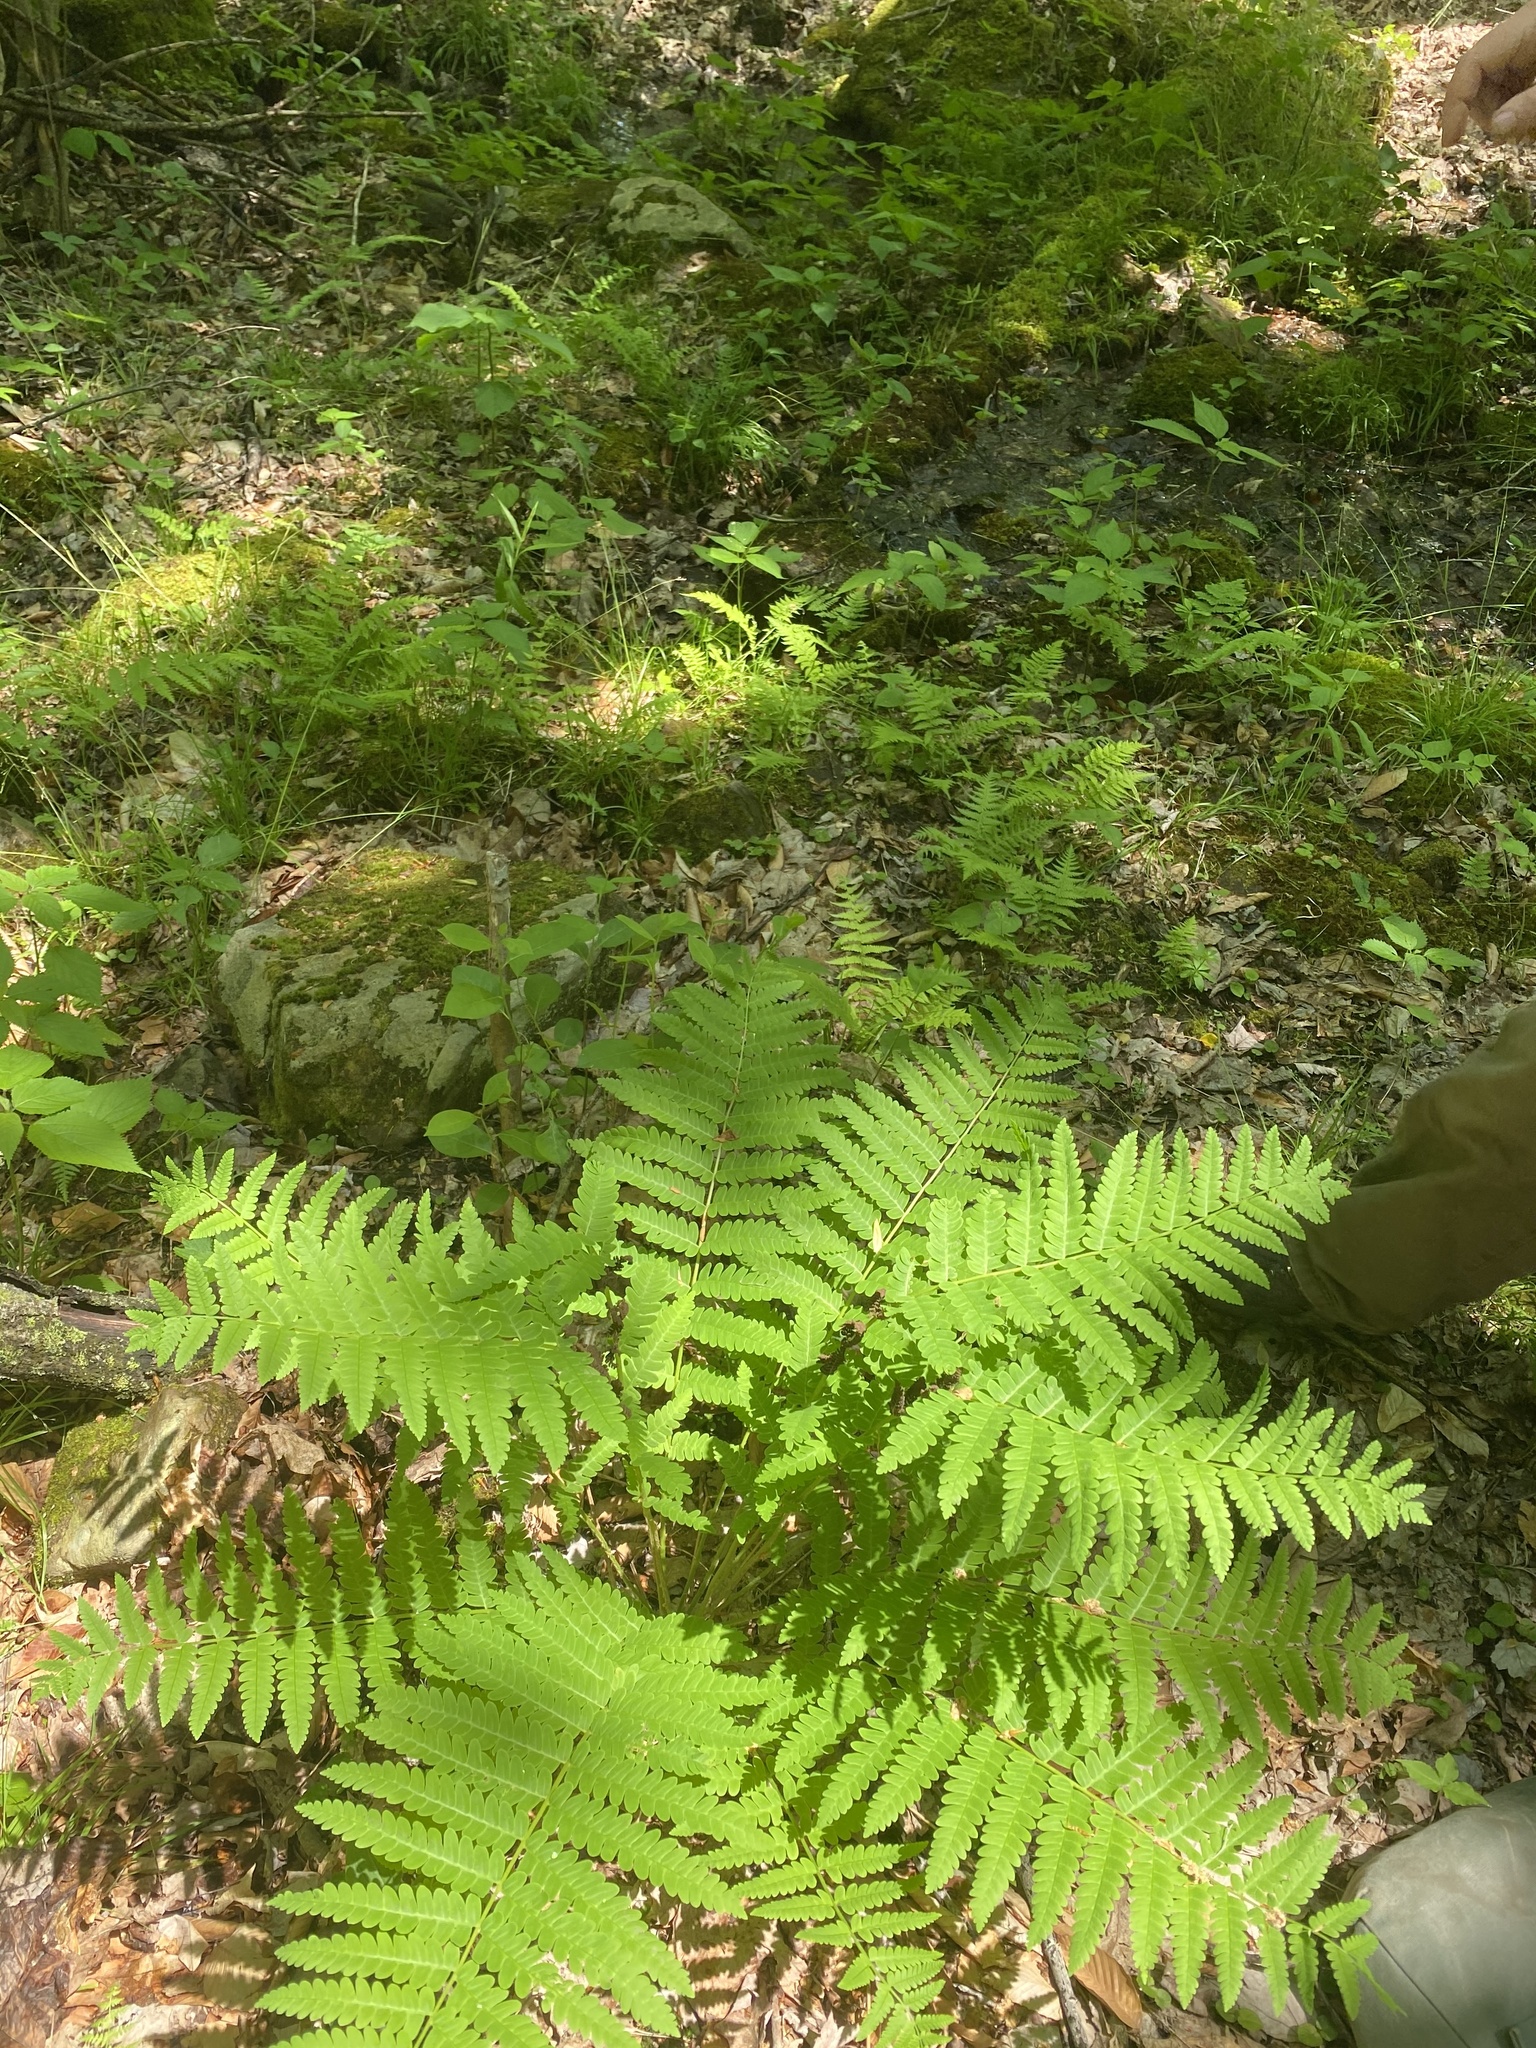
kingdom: Plantae
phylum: Tracheophyta
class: Polypodiopsida
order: Osmundales
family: Osmundaceae
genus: Claytosmunda
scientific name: Claytosmunda claytoniana
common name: Clayton's fern
